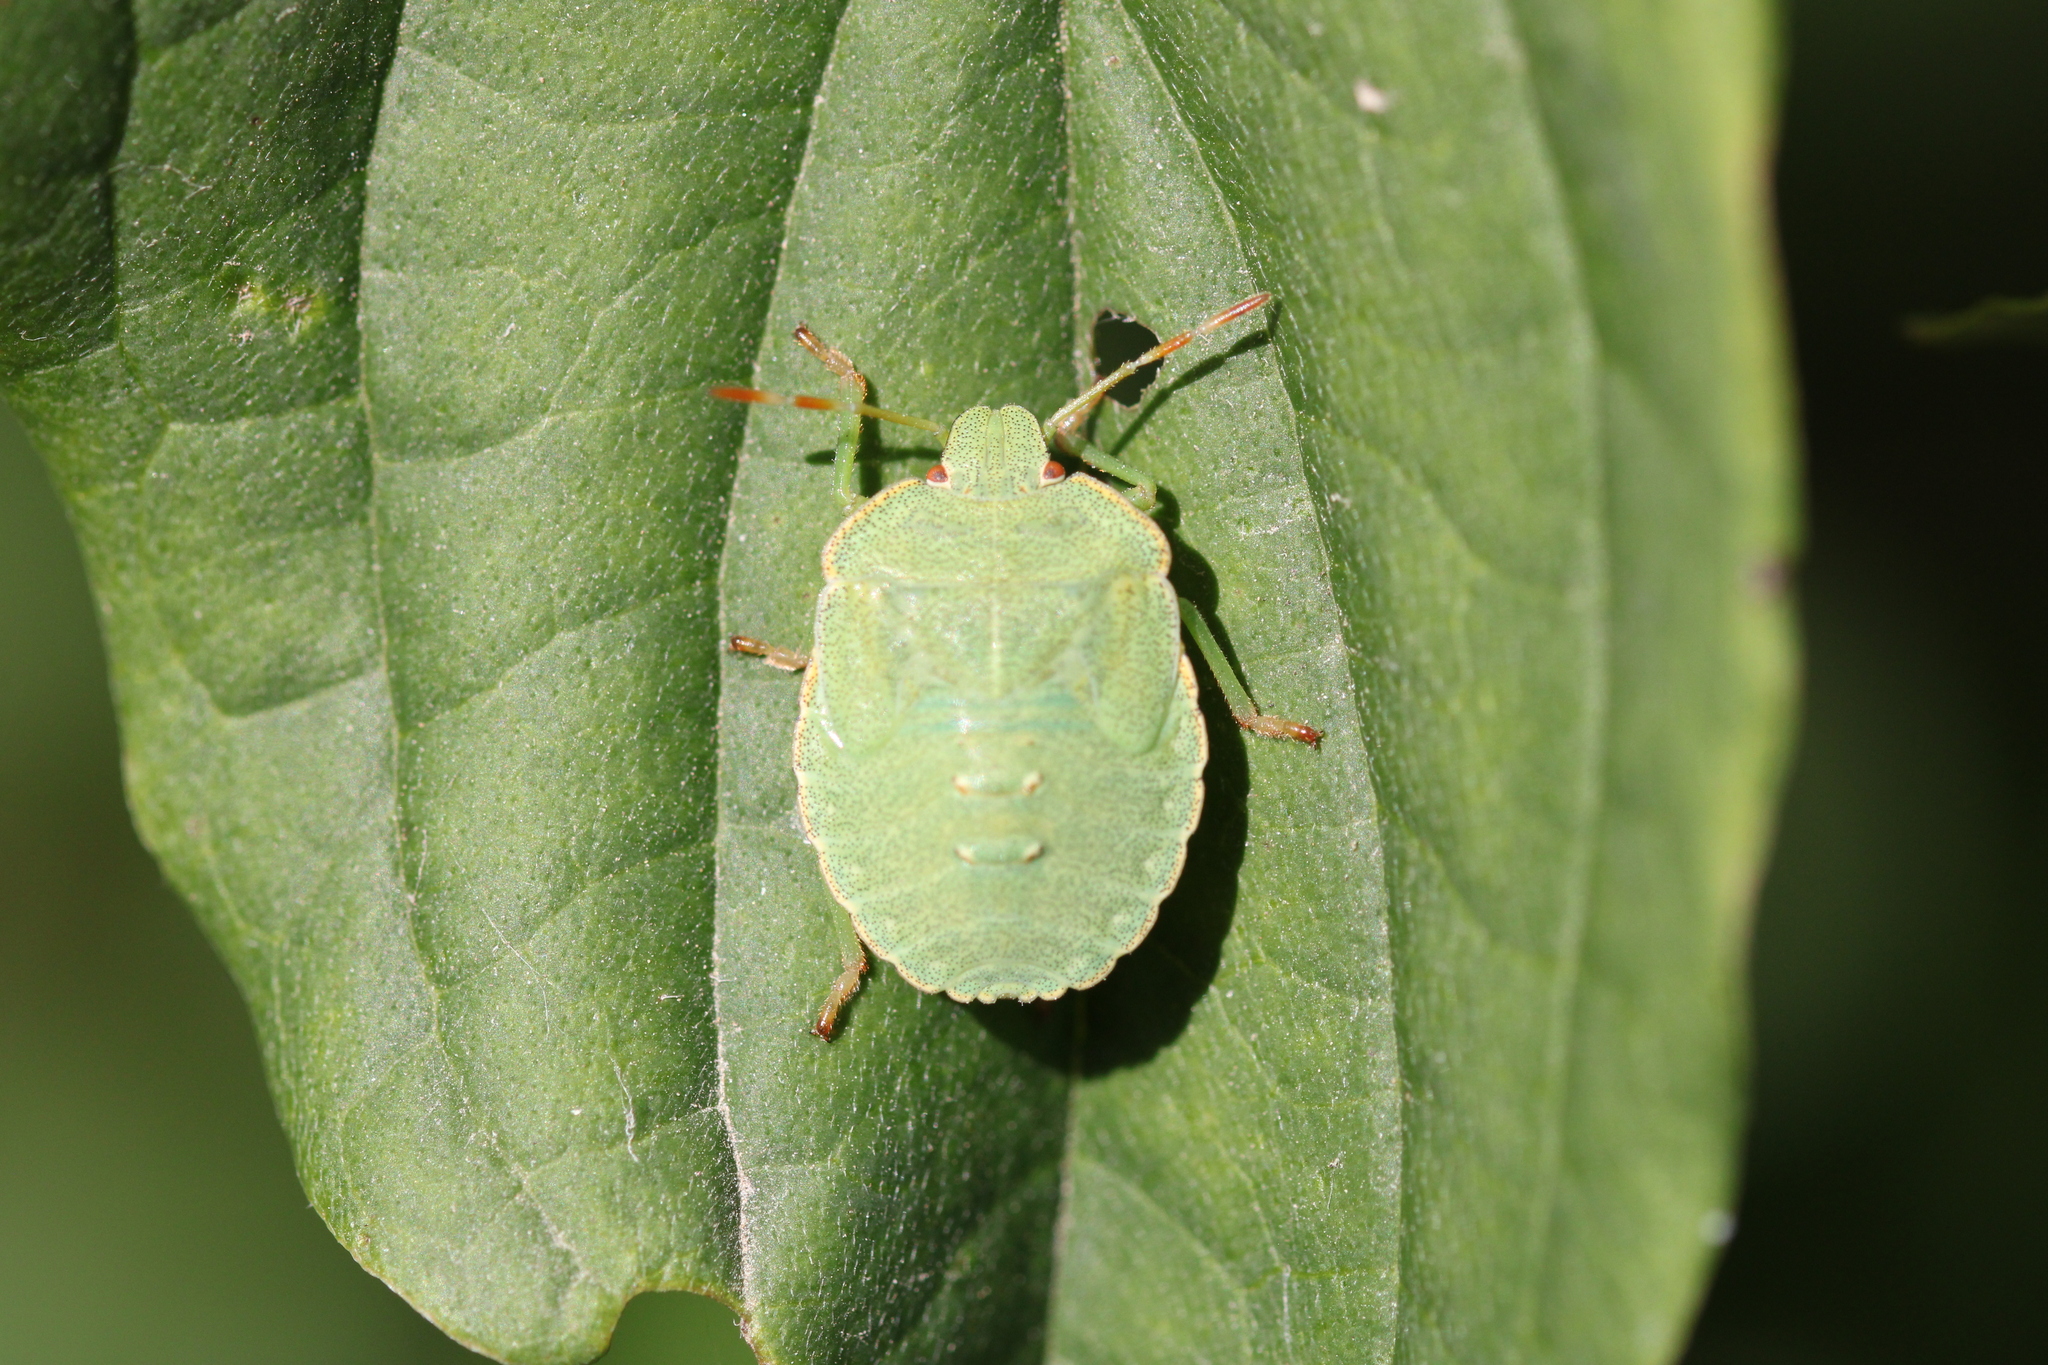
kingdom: Animalia
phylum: Arthropoda
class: Insecta
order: Hemiptera
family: Pentatomidae
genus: Palomena
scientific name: Palomena prasina
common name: Green shieldbug
